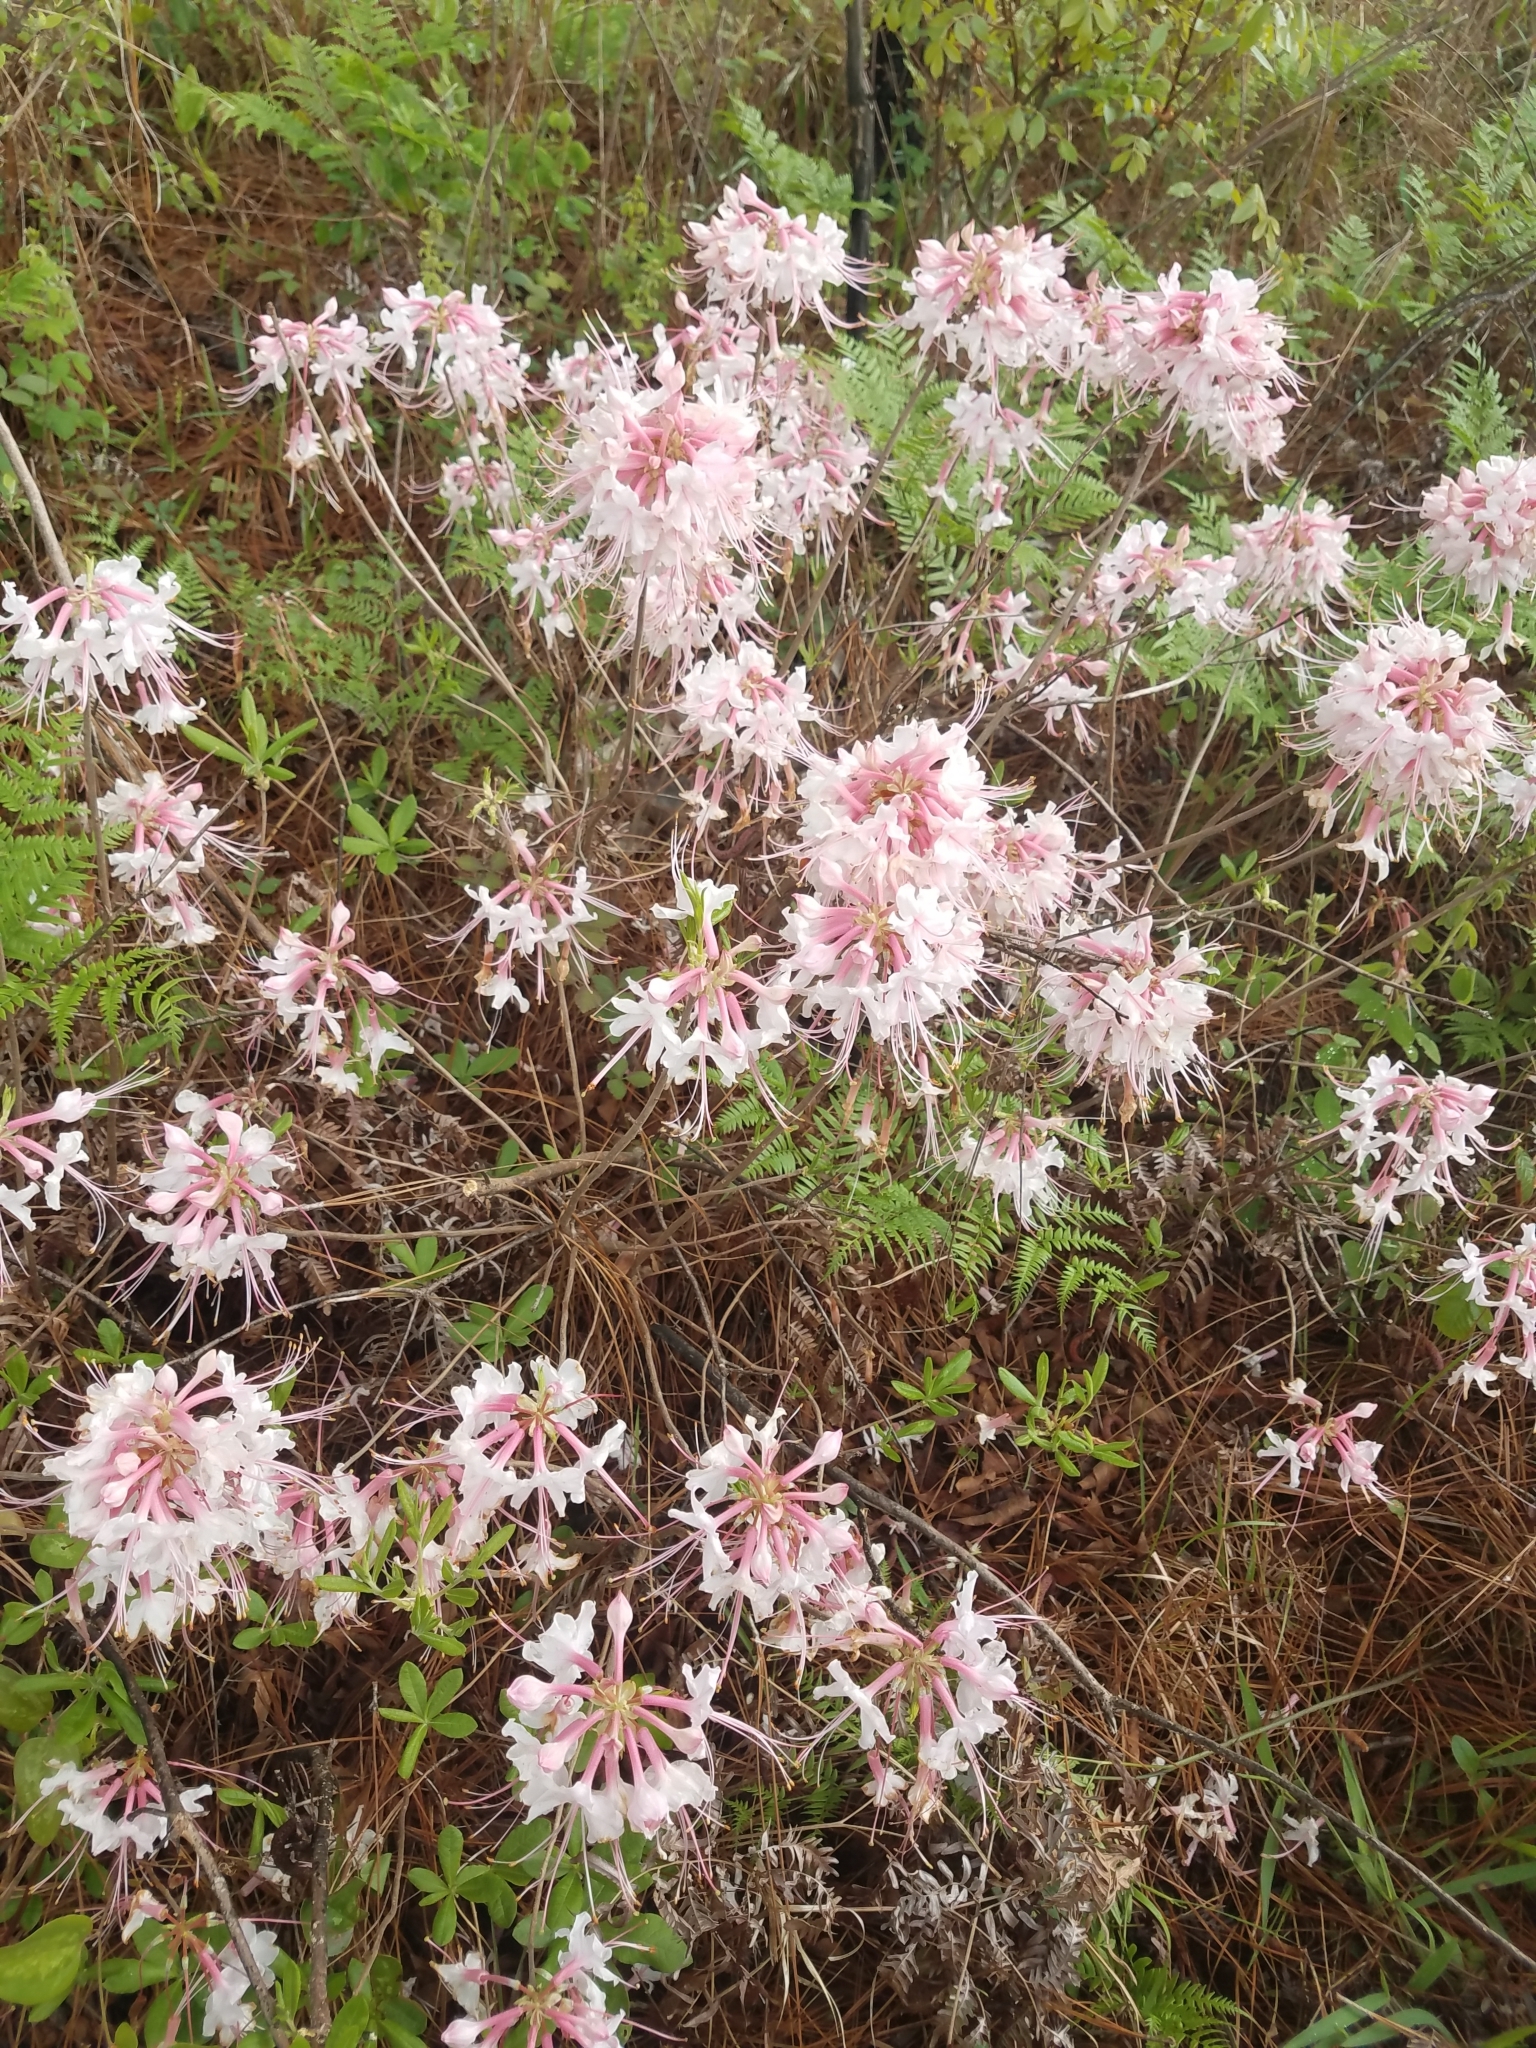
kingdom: Plantae
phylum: Tracheophyta
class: Magnoliopsida
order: Ericales
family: Ericaceae
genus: Rhododendron
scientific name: Rhododendron canescens
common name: Mountain azalea
